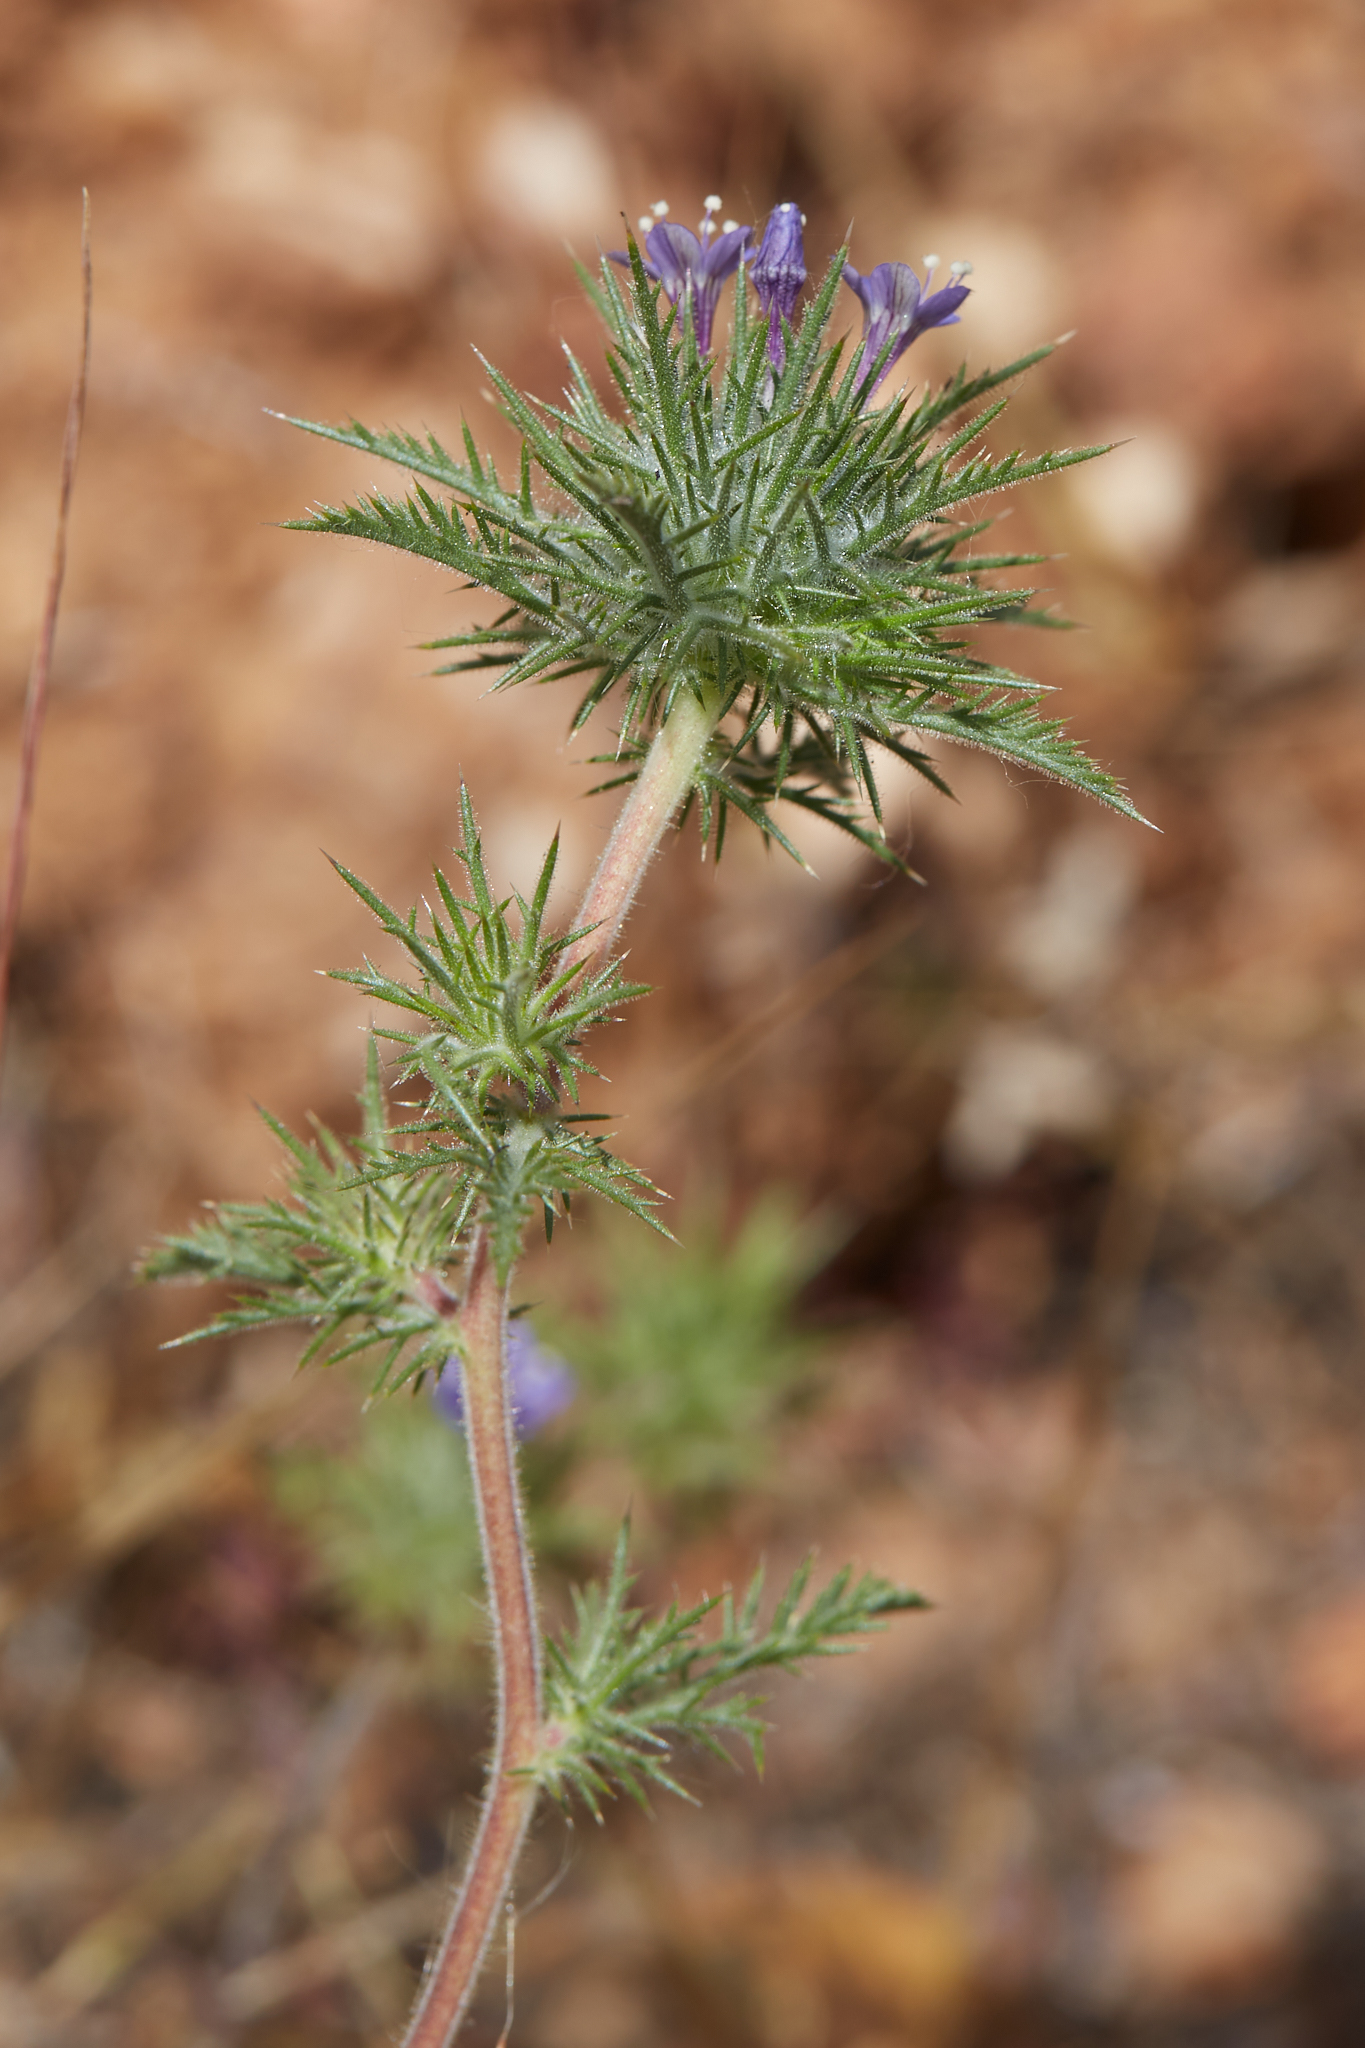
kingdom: Plantae
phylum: Tracheophyta
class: Magnoliopsida
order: Ericales
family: Polemoniaceae
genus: Navarretia
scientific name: Navarretia pubescens
